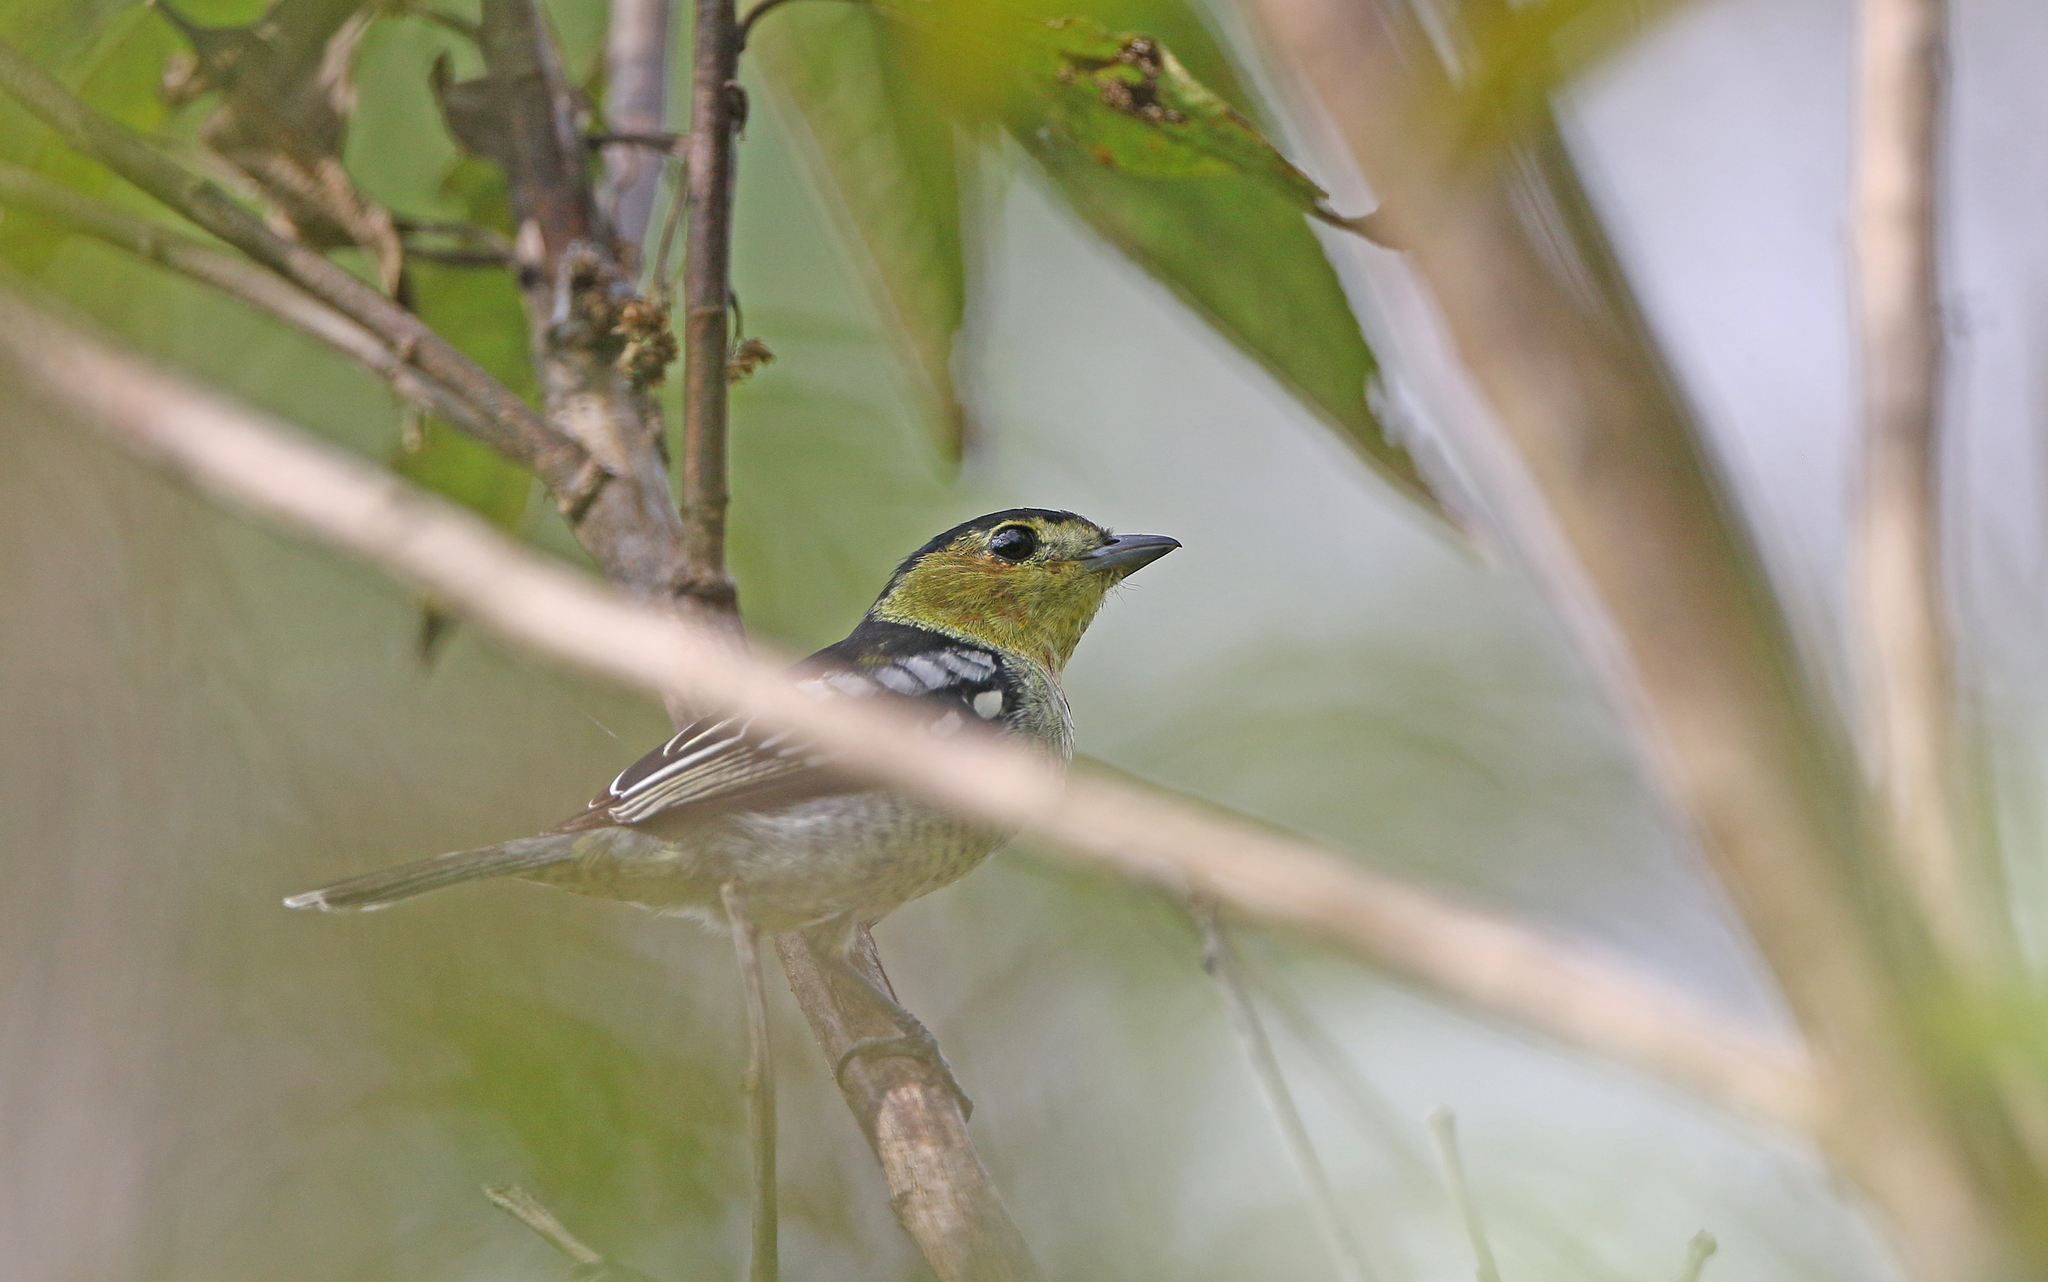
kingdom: Animalia
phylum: Chordata
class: Aves
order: Passeriformes
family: Cotingidae
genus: Pachyramphus
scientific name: Pachyramphus versicolor
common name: Barred becard
